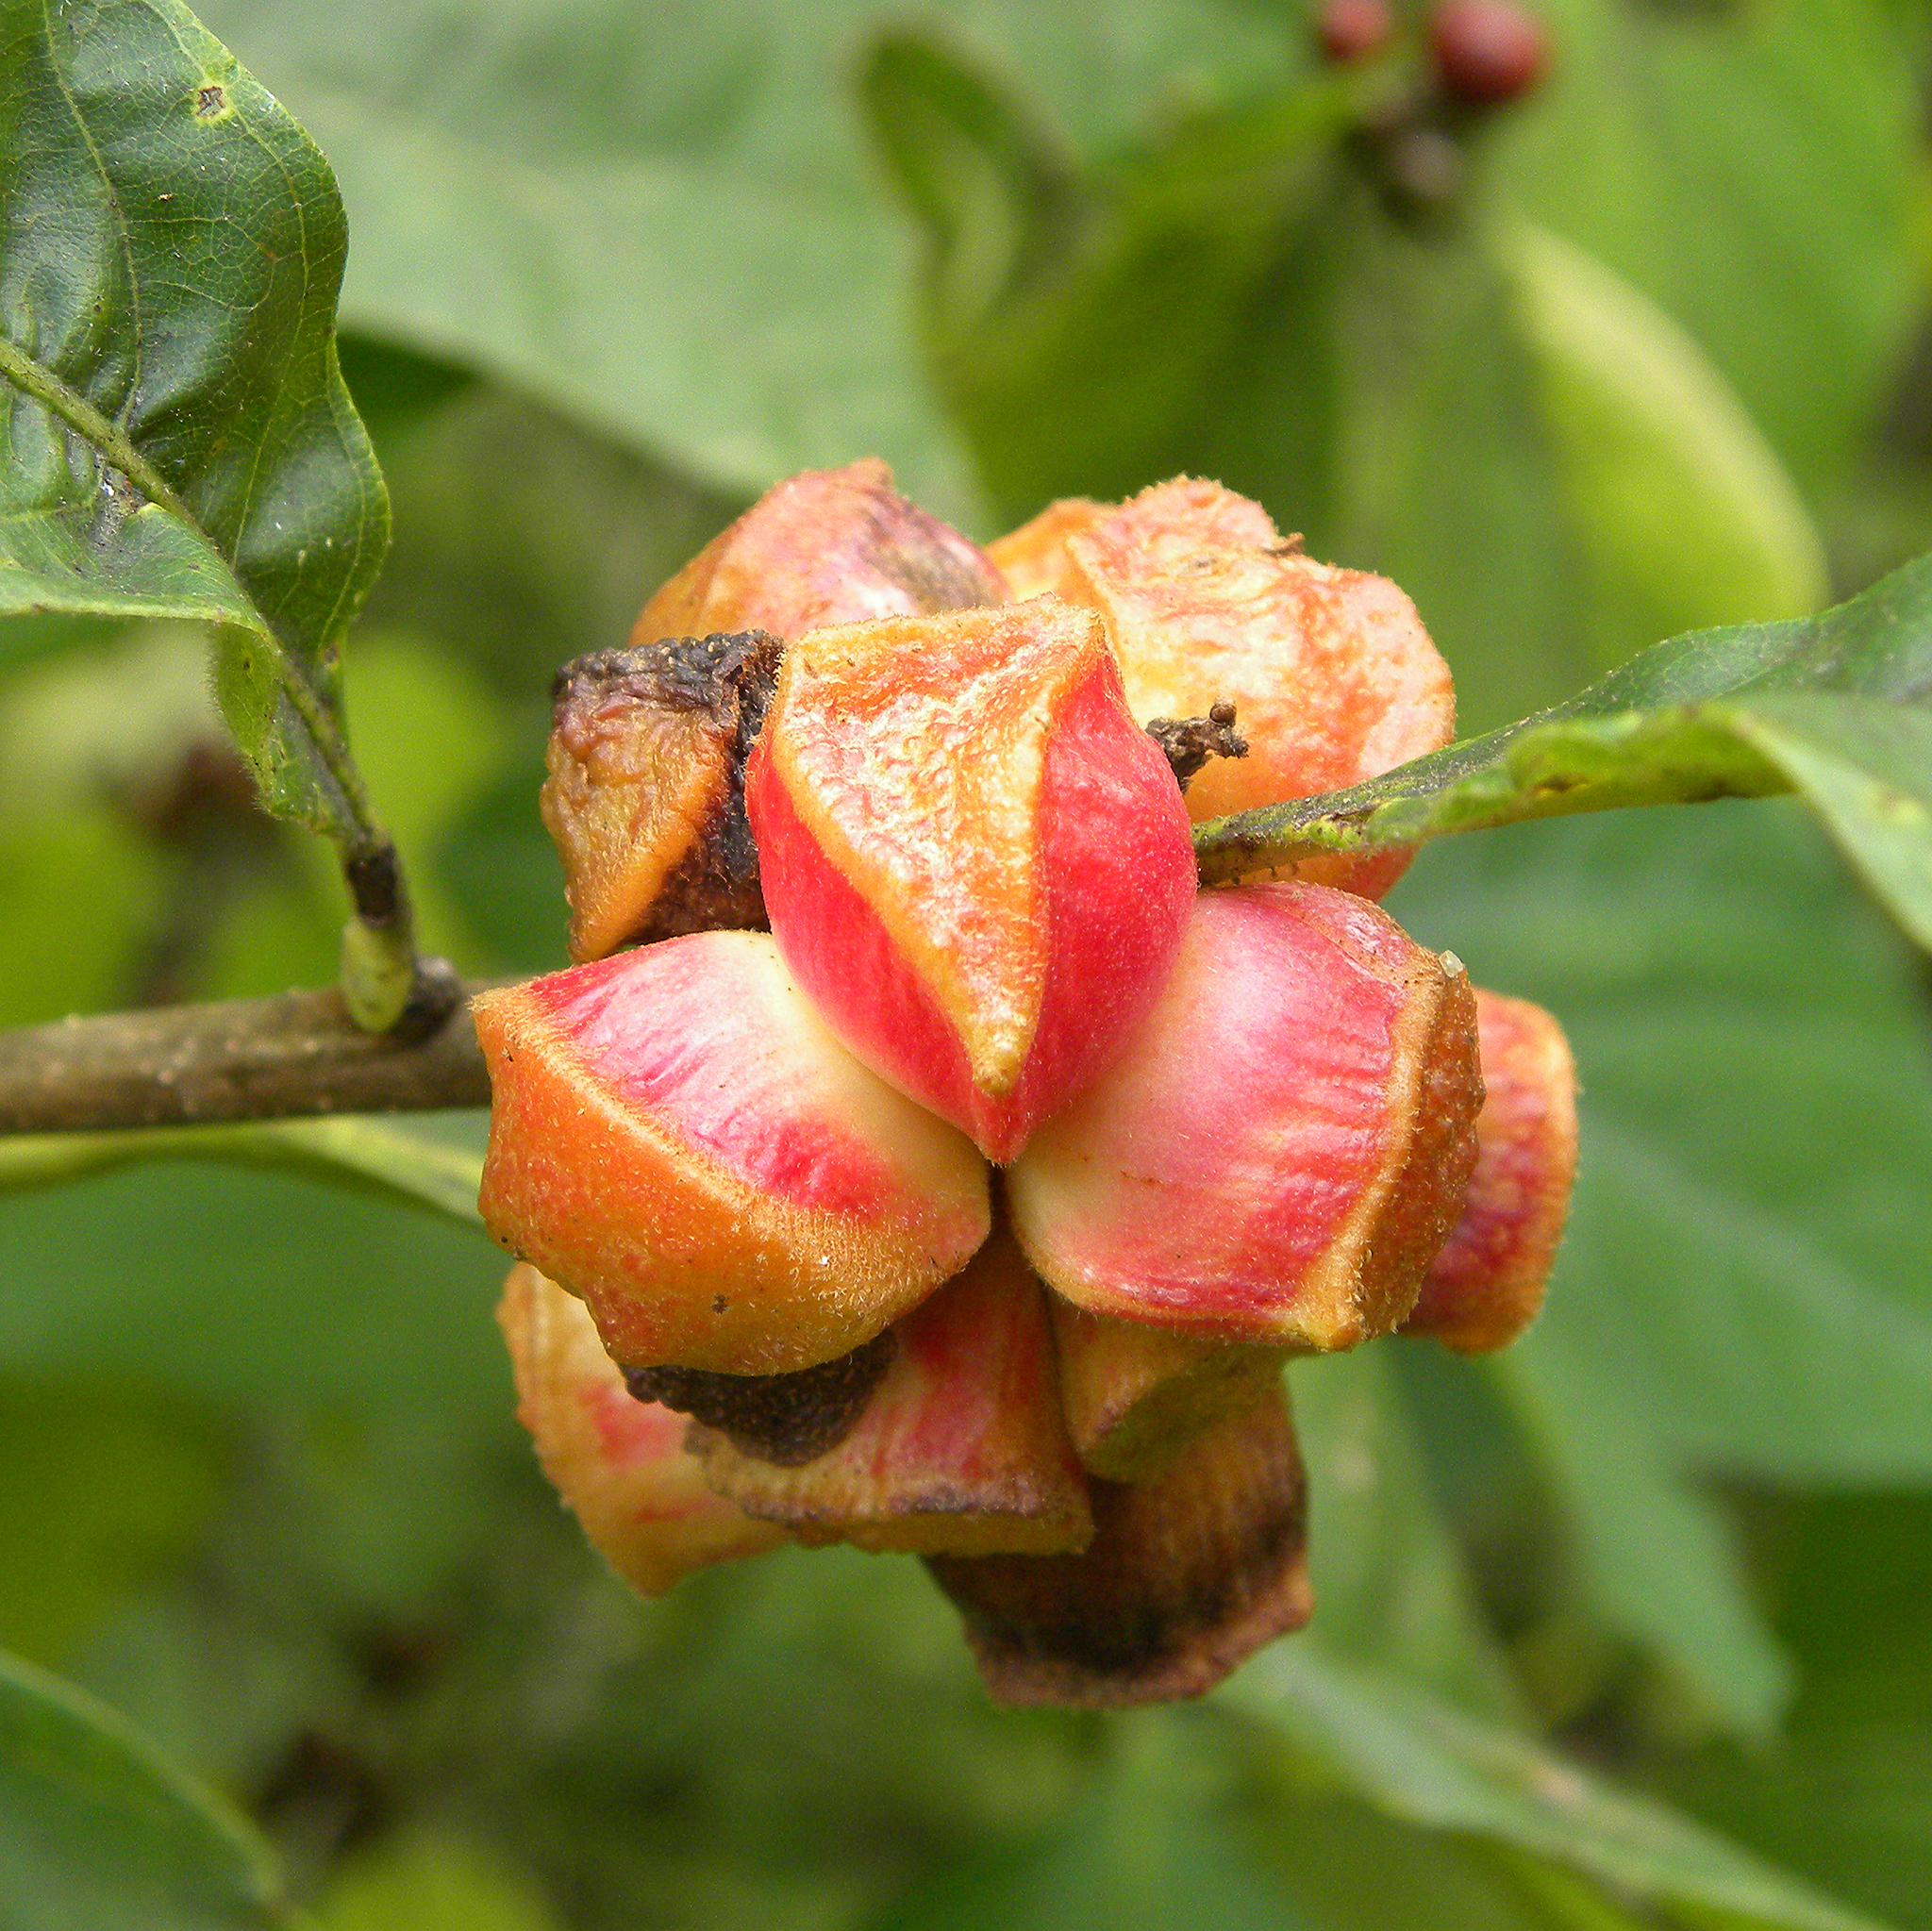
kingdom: Animalia
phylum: Arthropoda
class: Insecta
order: Hymenoptera
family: Cynipidae
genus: Andricus
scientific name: Andricus
